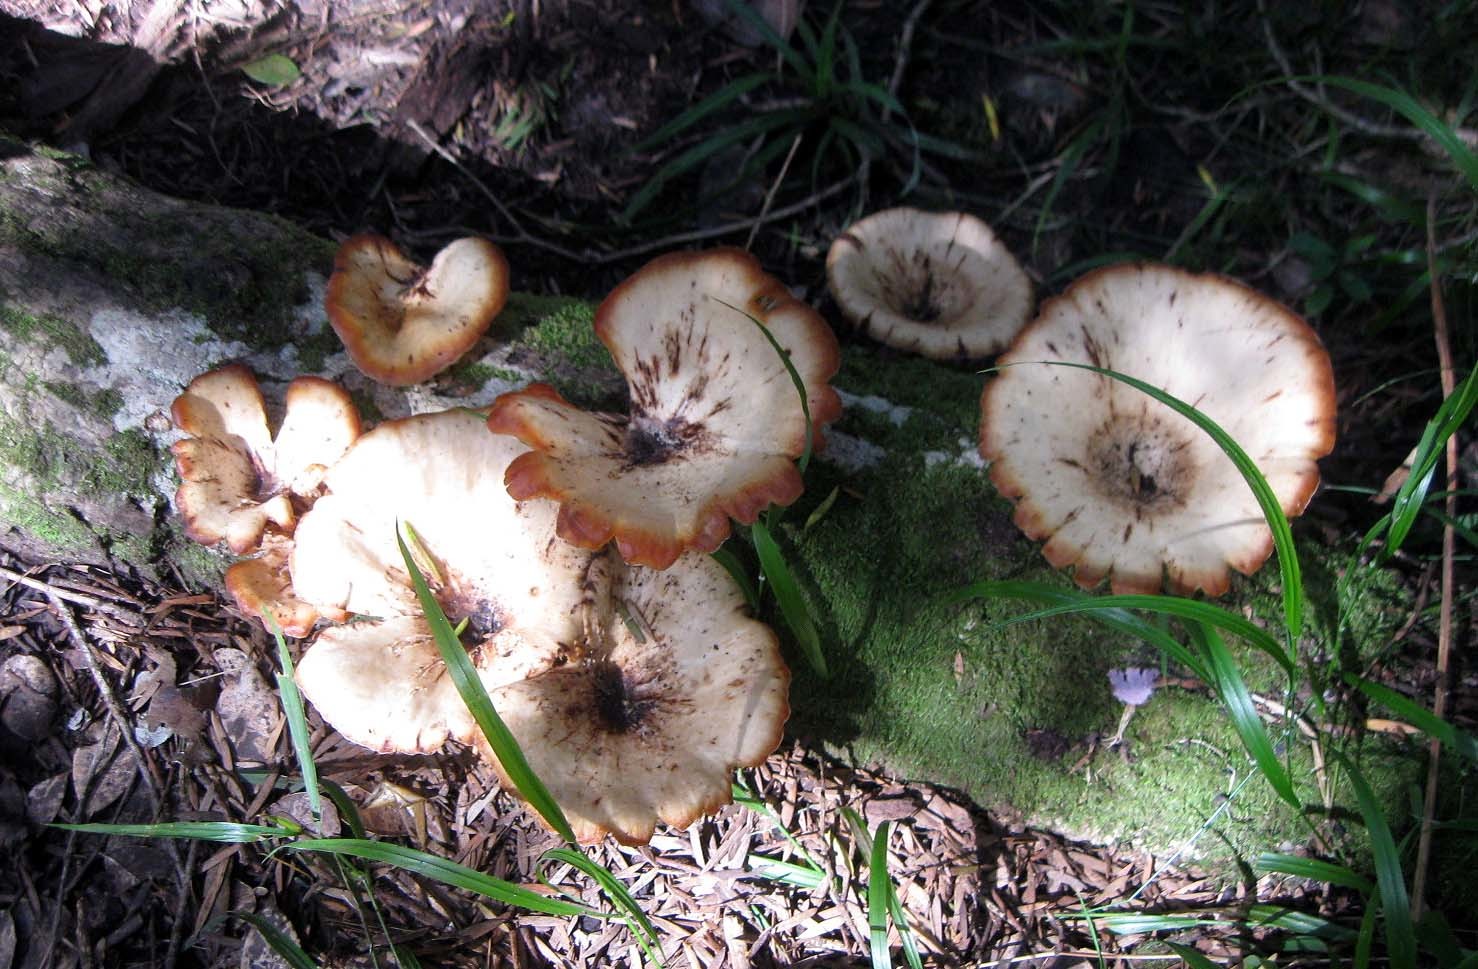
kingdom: Fungi
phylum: Basidiomycota
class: Agaricomycetes
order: Polyporales
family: Polyporaceae
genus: Lentinus
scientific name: Lentinus sajor-caju
